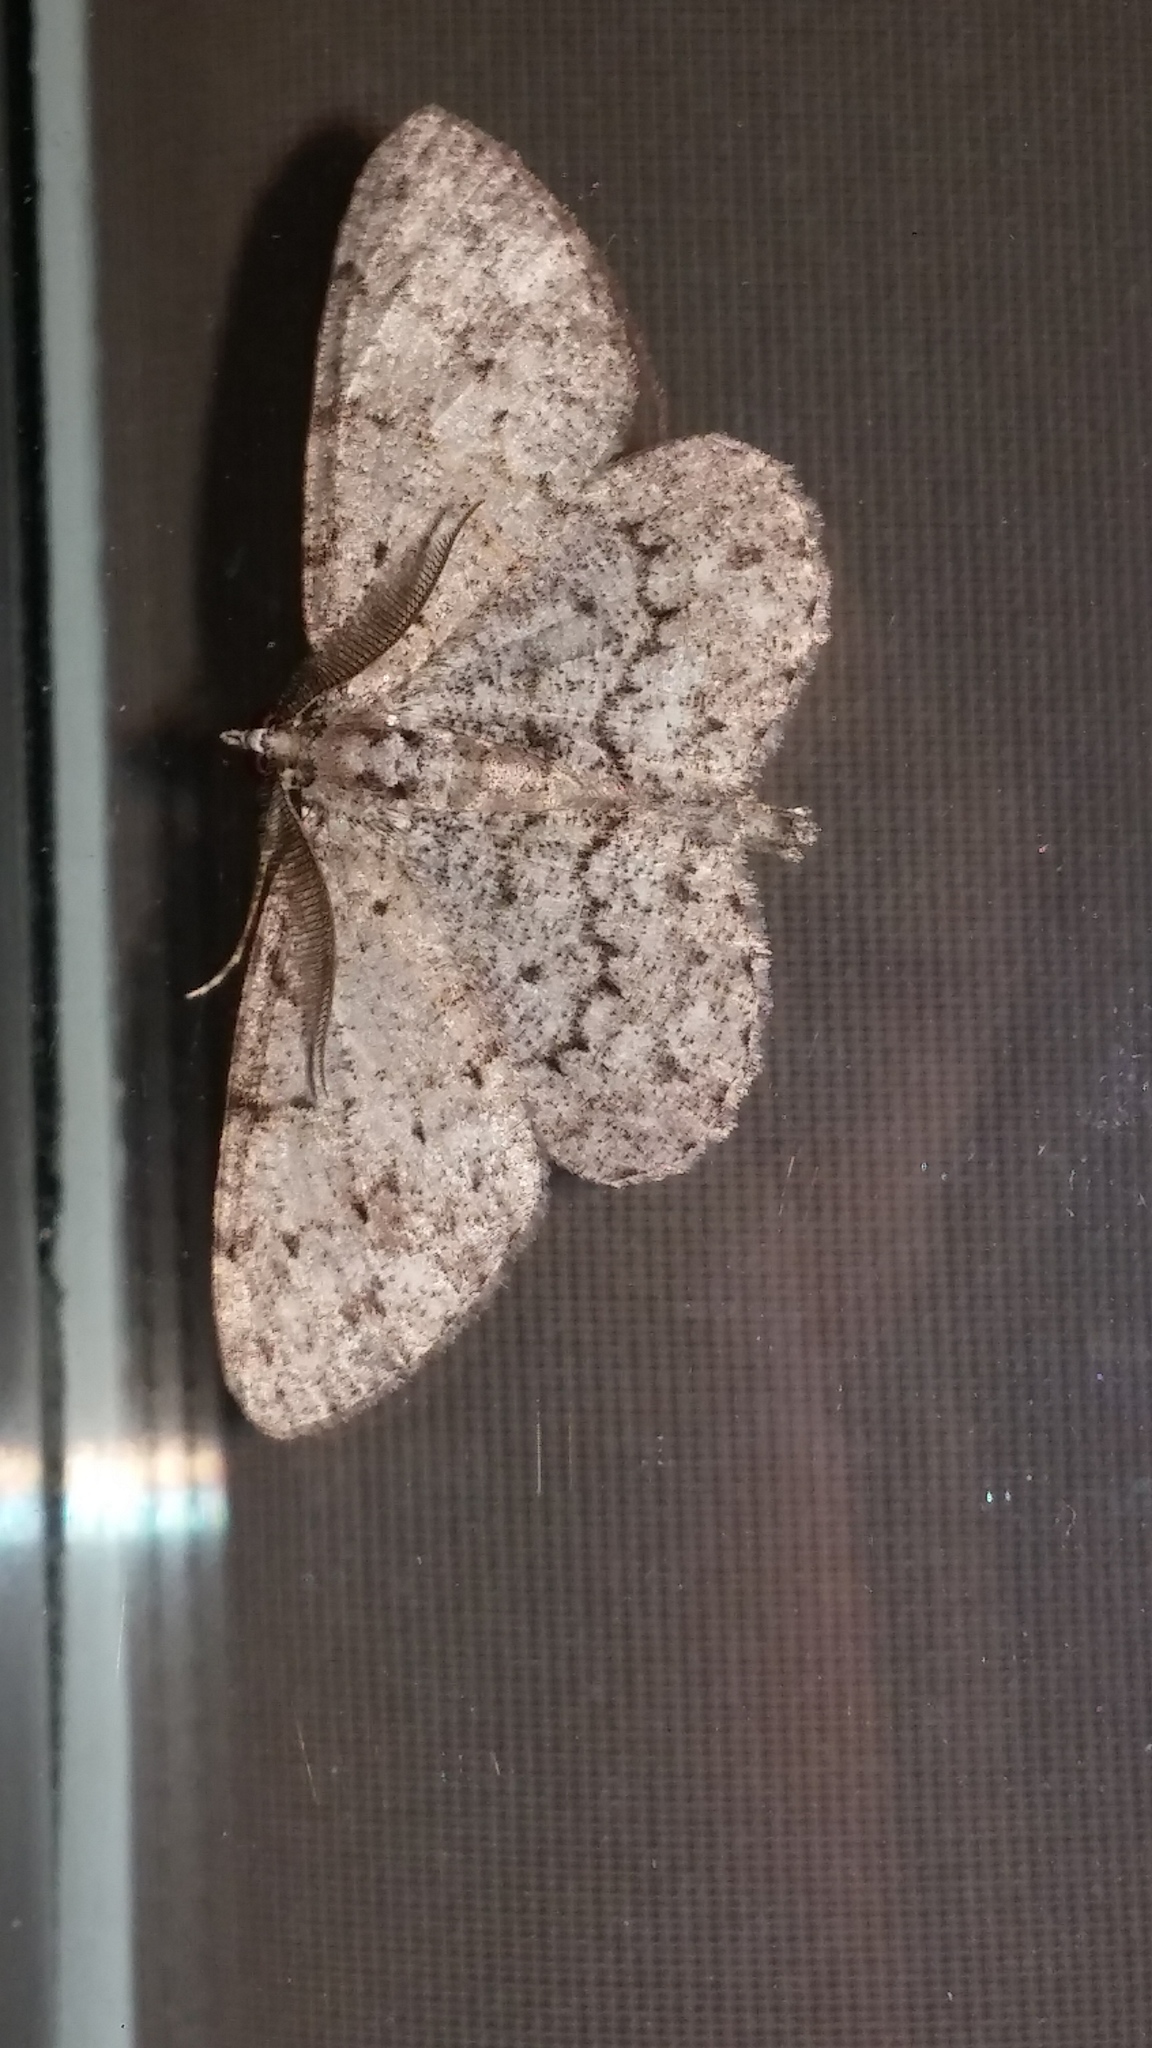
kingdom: Animalia
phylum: Arthropoda
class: Insecta
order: Lepidoptera
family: Geometridae
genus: Protoboarmia
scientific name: Protoboarmia porcelaria
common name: Porcelain gray
